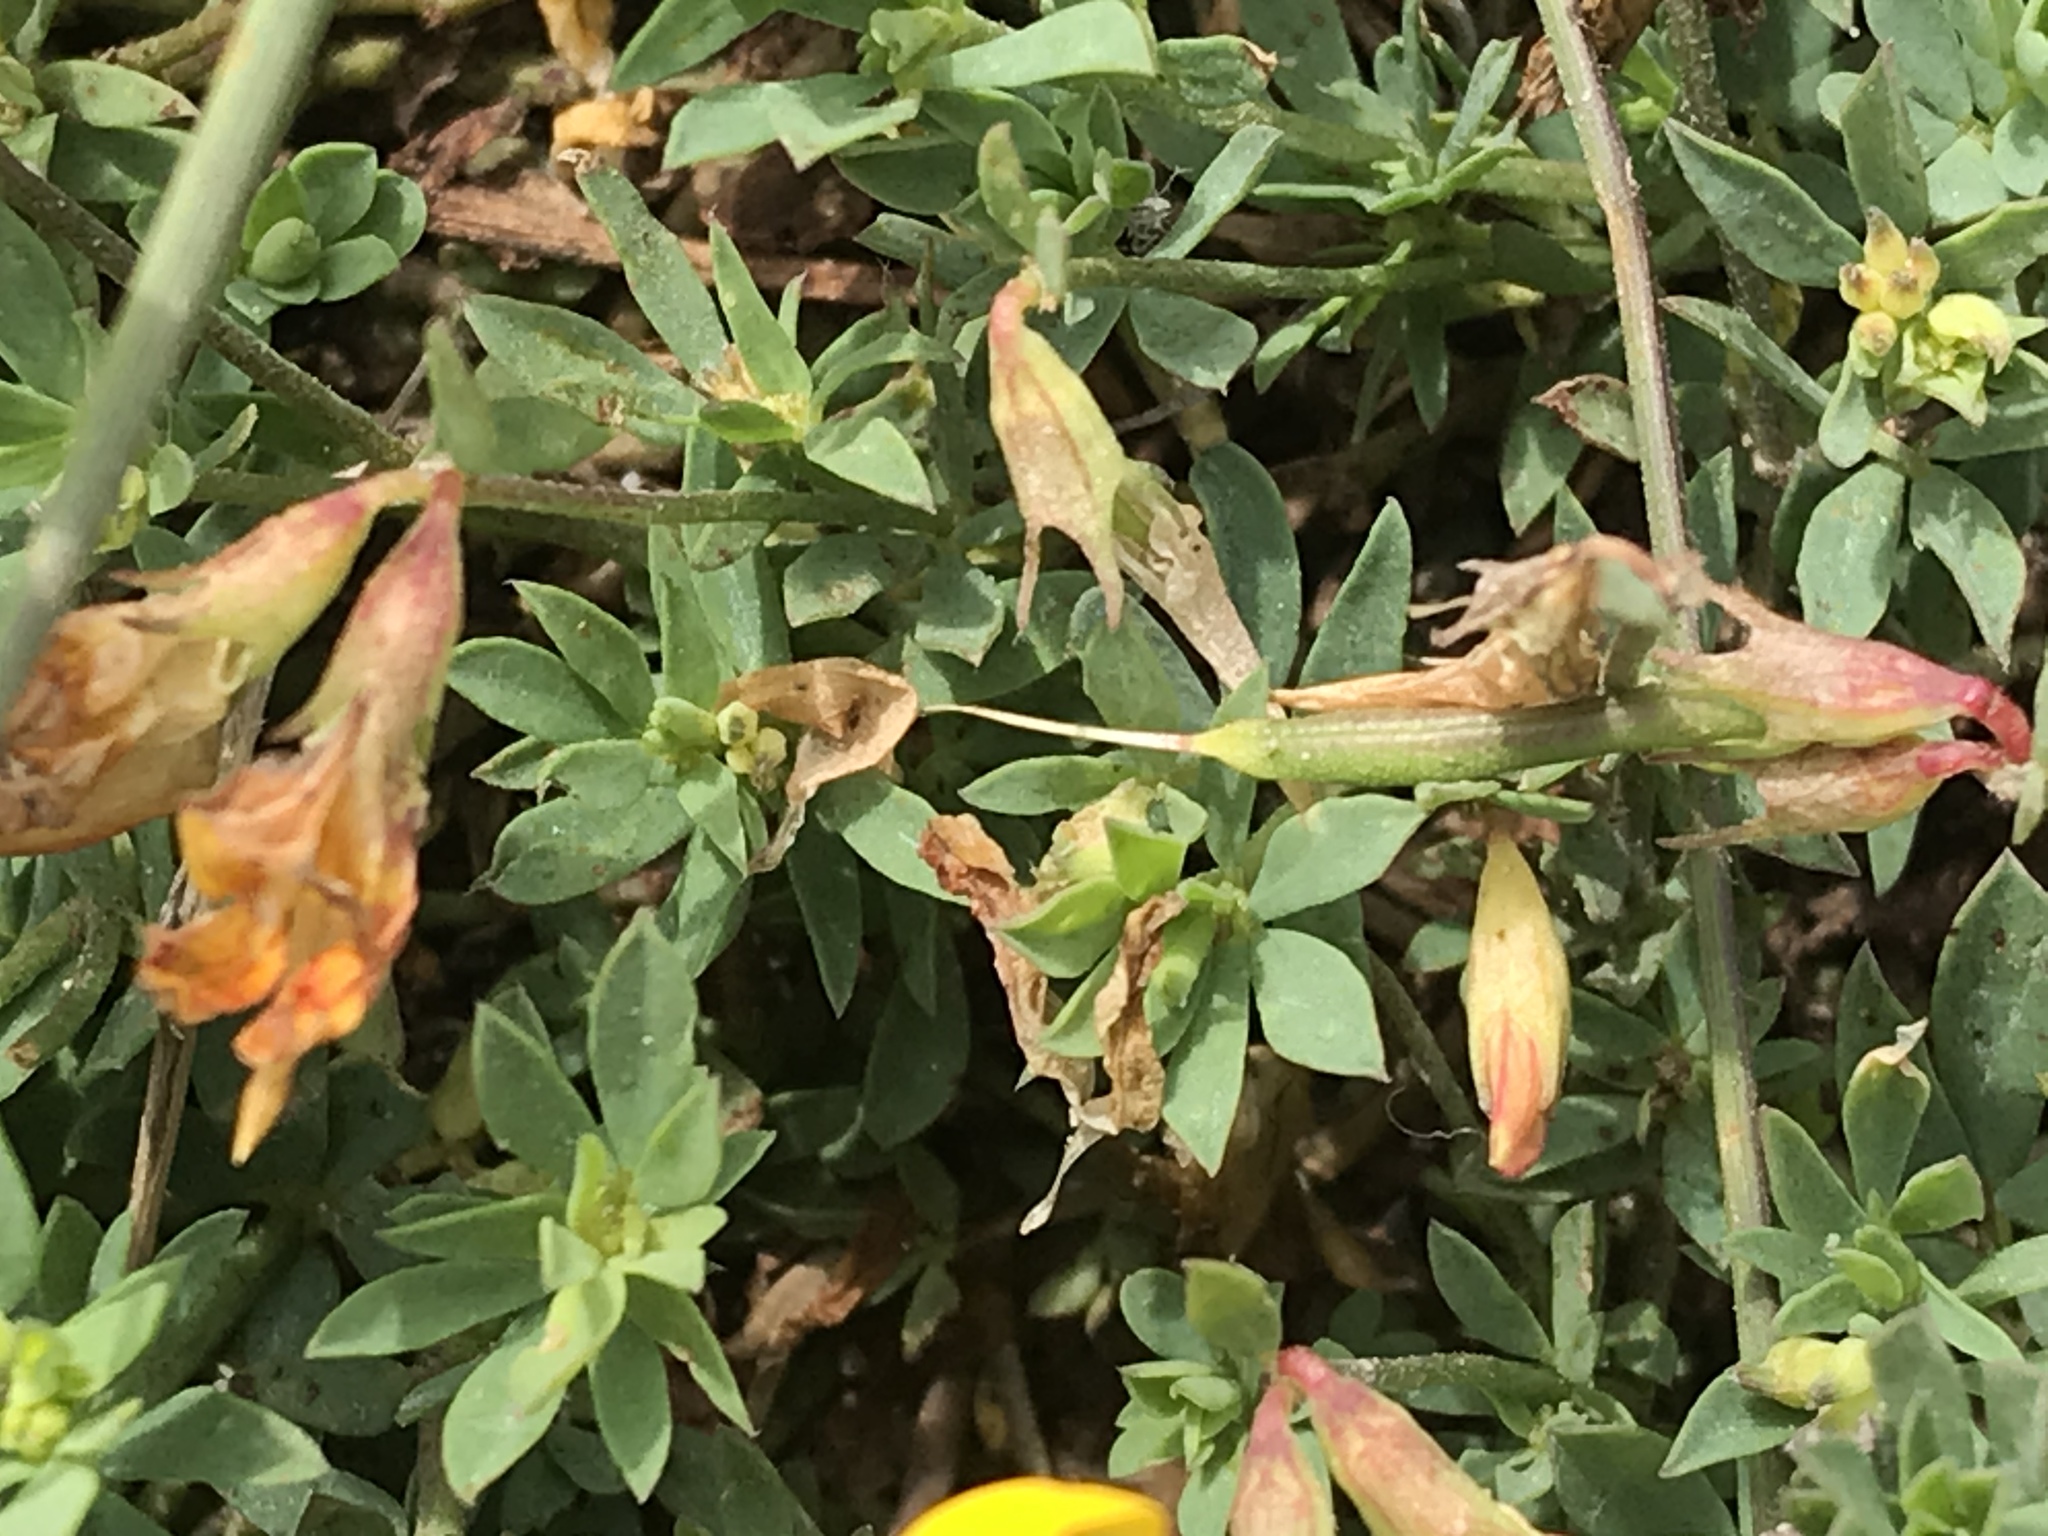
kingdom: Plantae
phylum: Tracheophyta
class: Magnoliopsida
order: Fabales
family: Fabaceae
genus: Lotus
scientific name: Lotus corniculatus
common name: Common bird's-foot-trefoil
